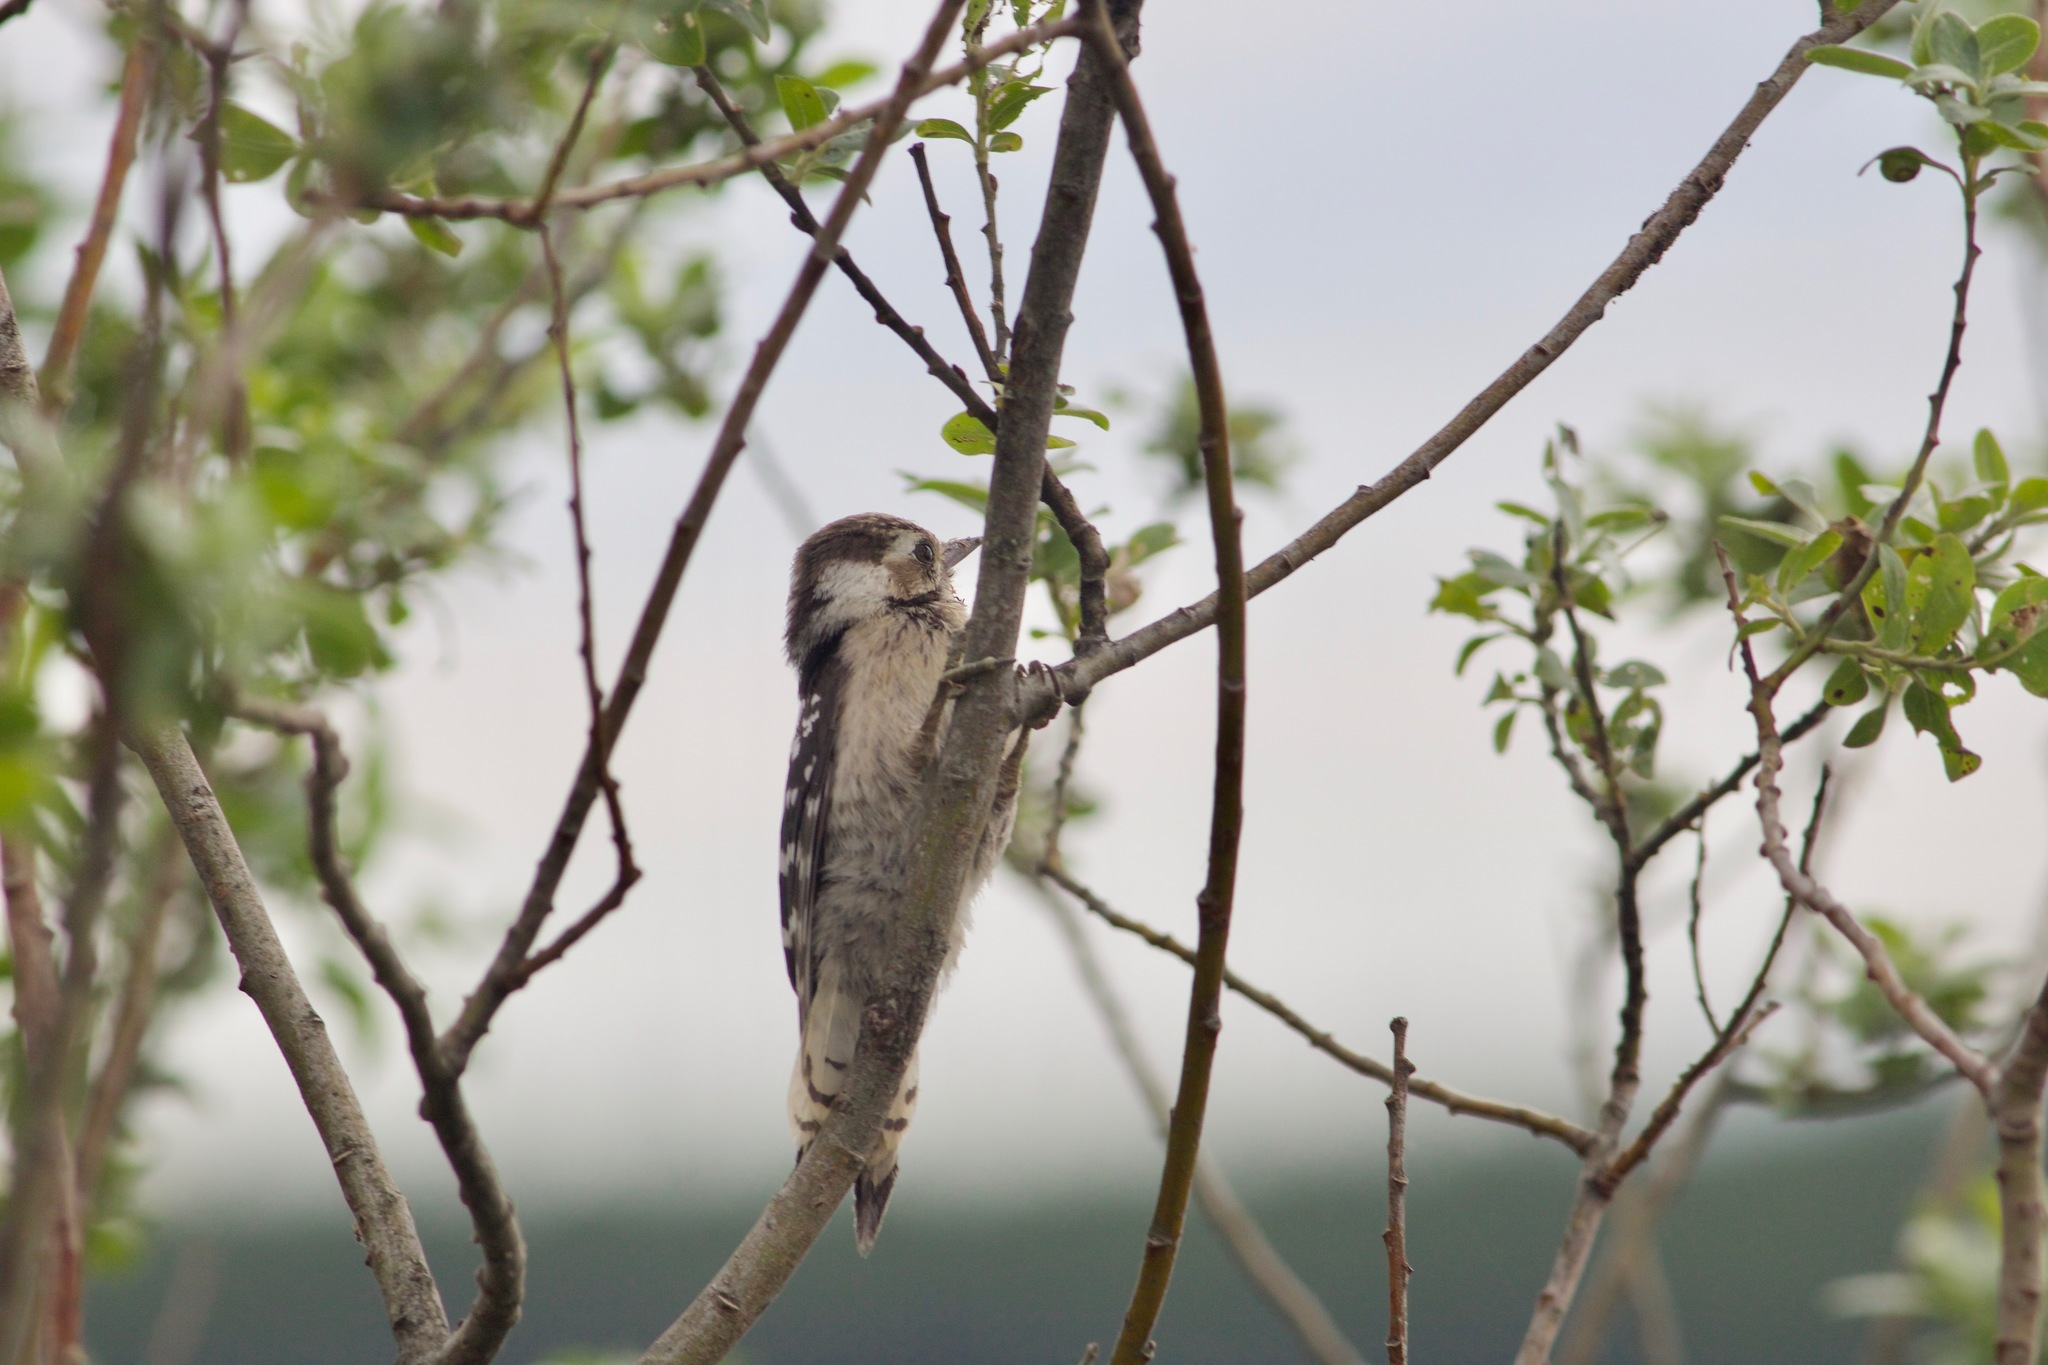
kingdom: Animalia
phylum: Chordata
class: Aves
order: Piciformes
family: Picidae
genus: Dryobates
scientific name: Dryobates minor
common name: Lesser spotted woodpecker
